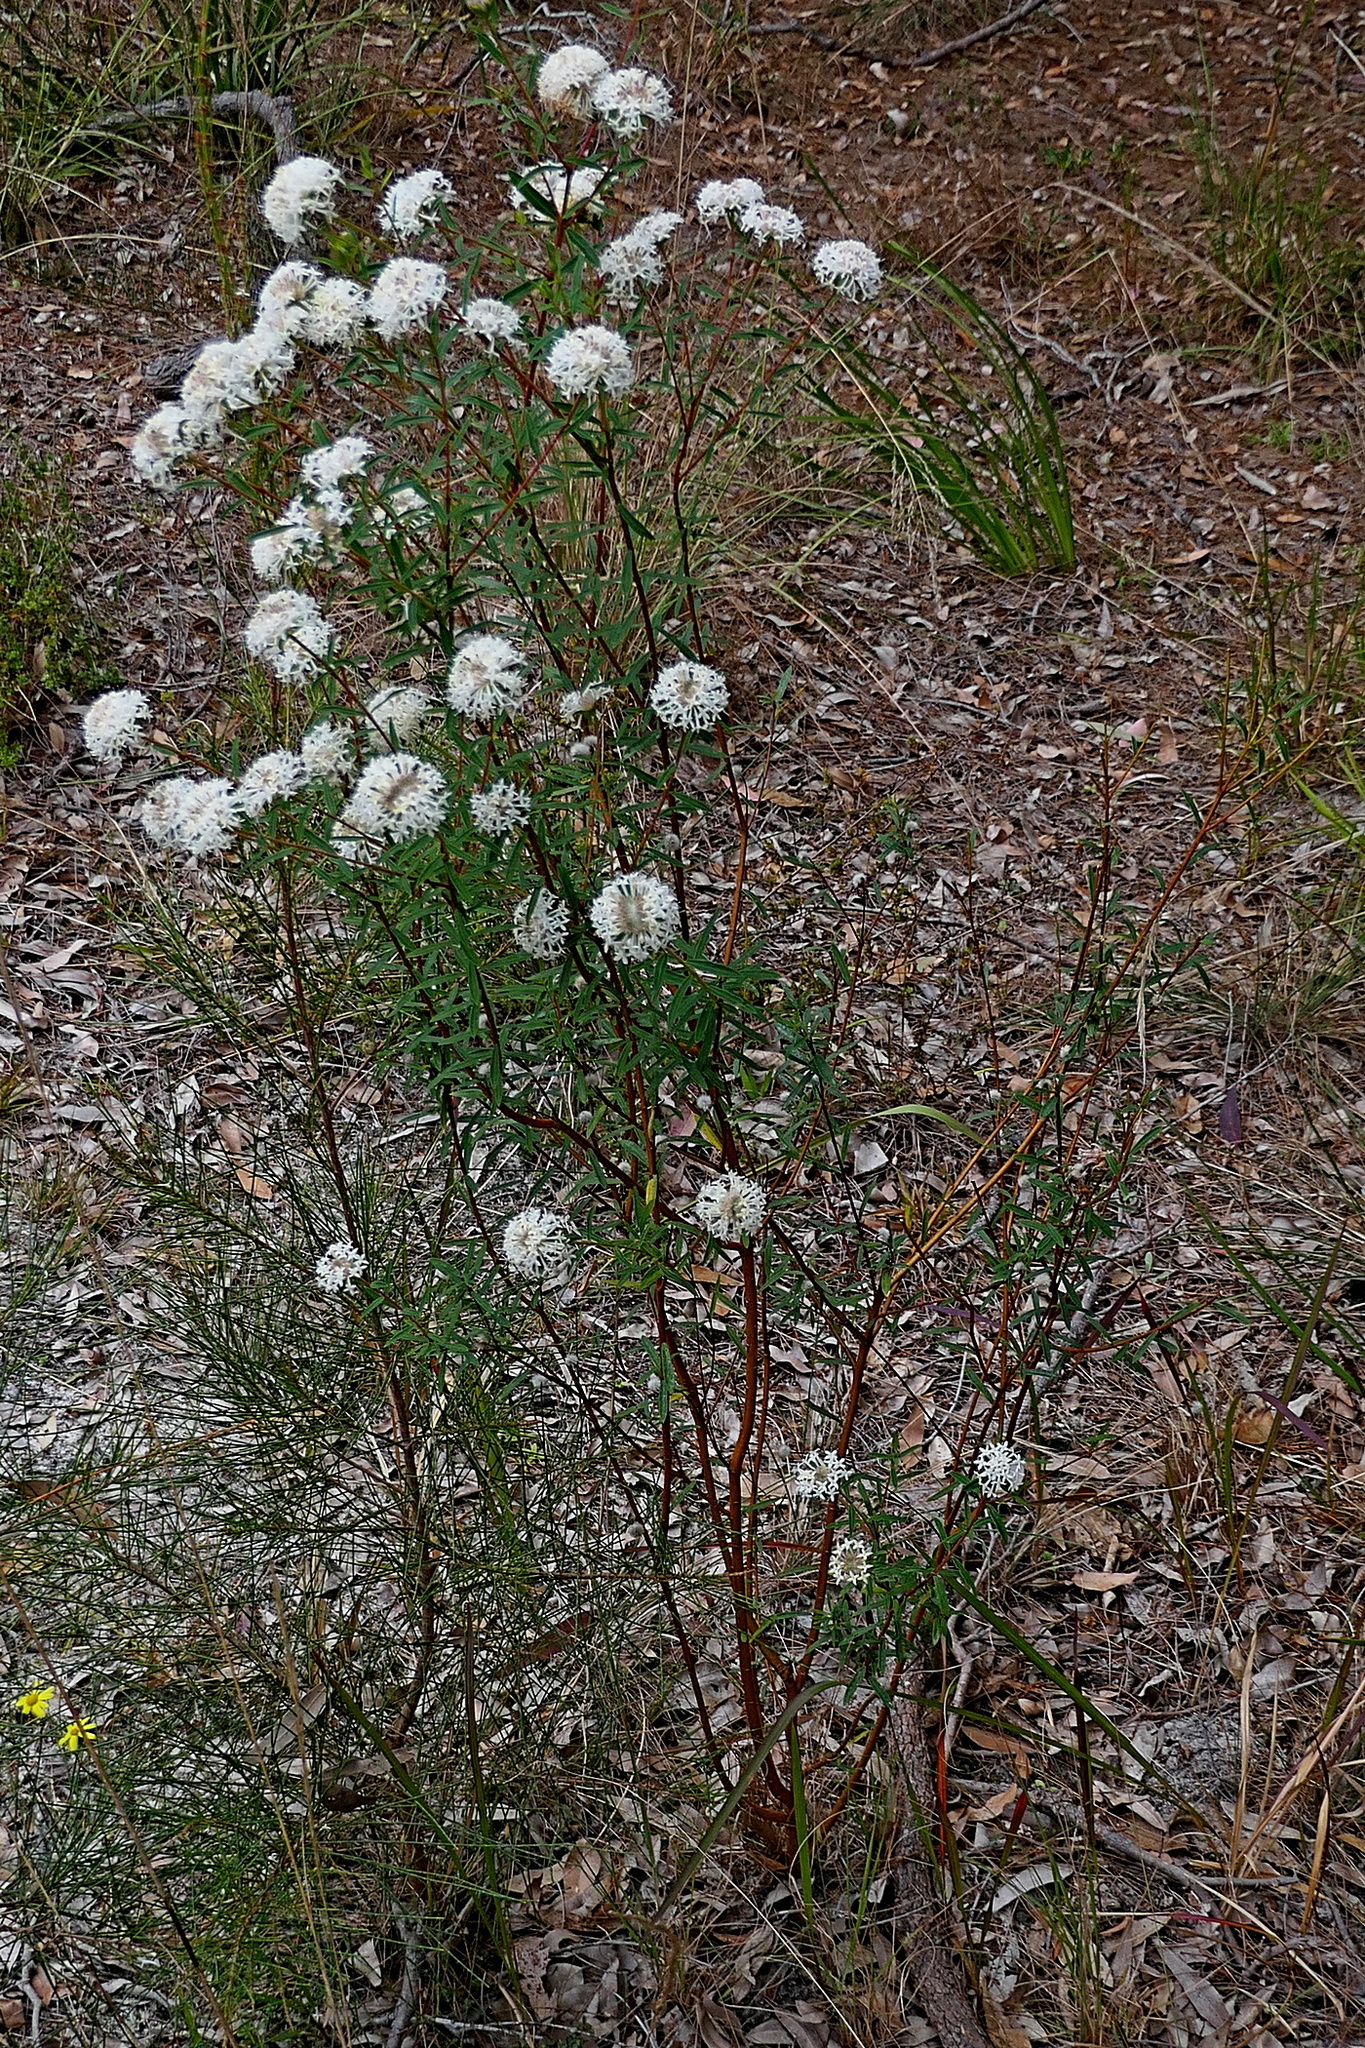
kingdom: Plantae
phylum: Tracheophyta
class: Magnoliopsida
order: Malvales
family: Thymelaeaceae
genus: Pimelea
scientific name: Pimelea linifolia
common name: Queen-of-the-bush
